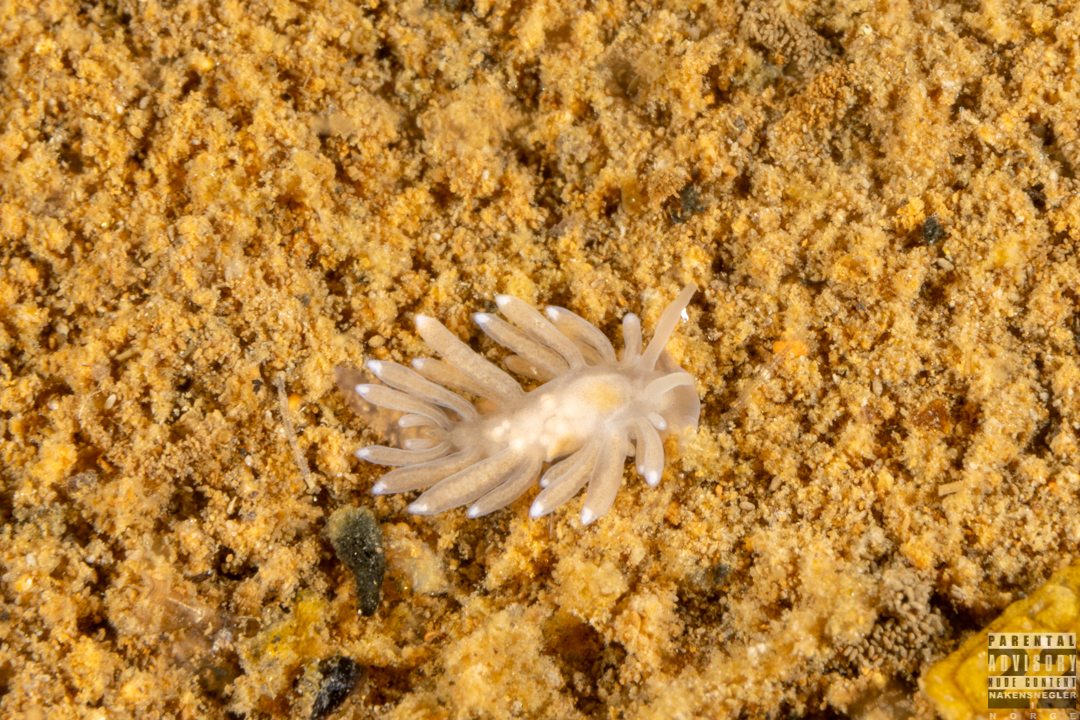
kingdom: Animalia
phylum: Mollusca
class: Gastropoda
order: Nudibranchia
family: Cuthonidae
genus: Bohuslania
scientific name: Bohuslania matsmichaeli
